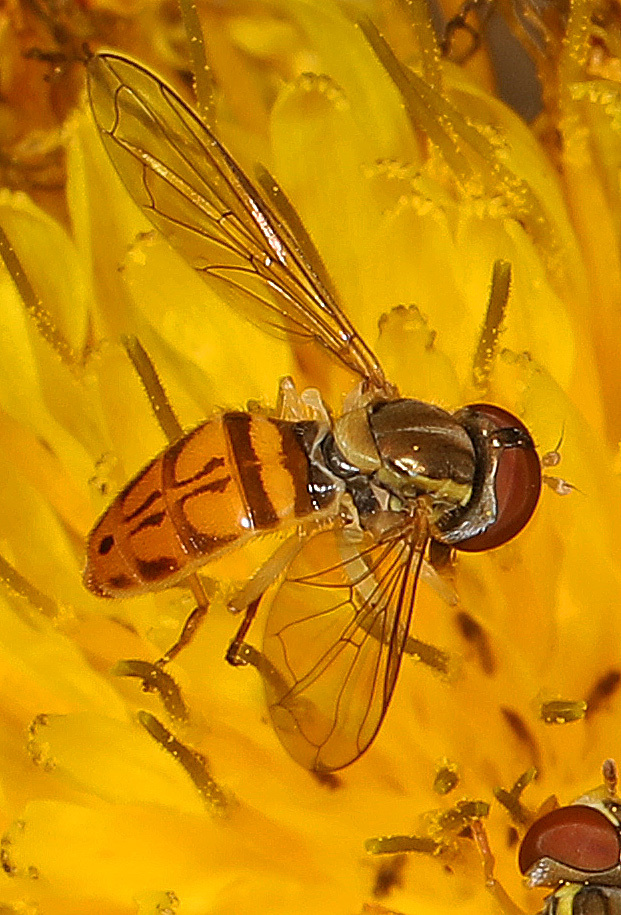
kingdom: Animalia
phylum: Arthropoda
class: Insecta
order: Diptera
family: Syrphidae
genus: Toxomerus
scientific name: Toxomerus marginatus
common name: Syrphid fly
